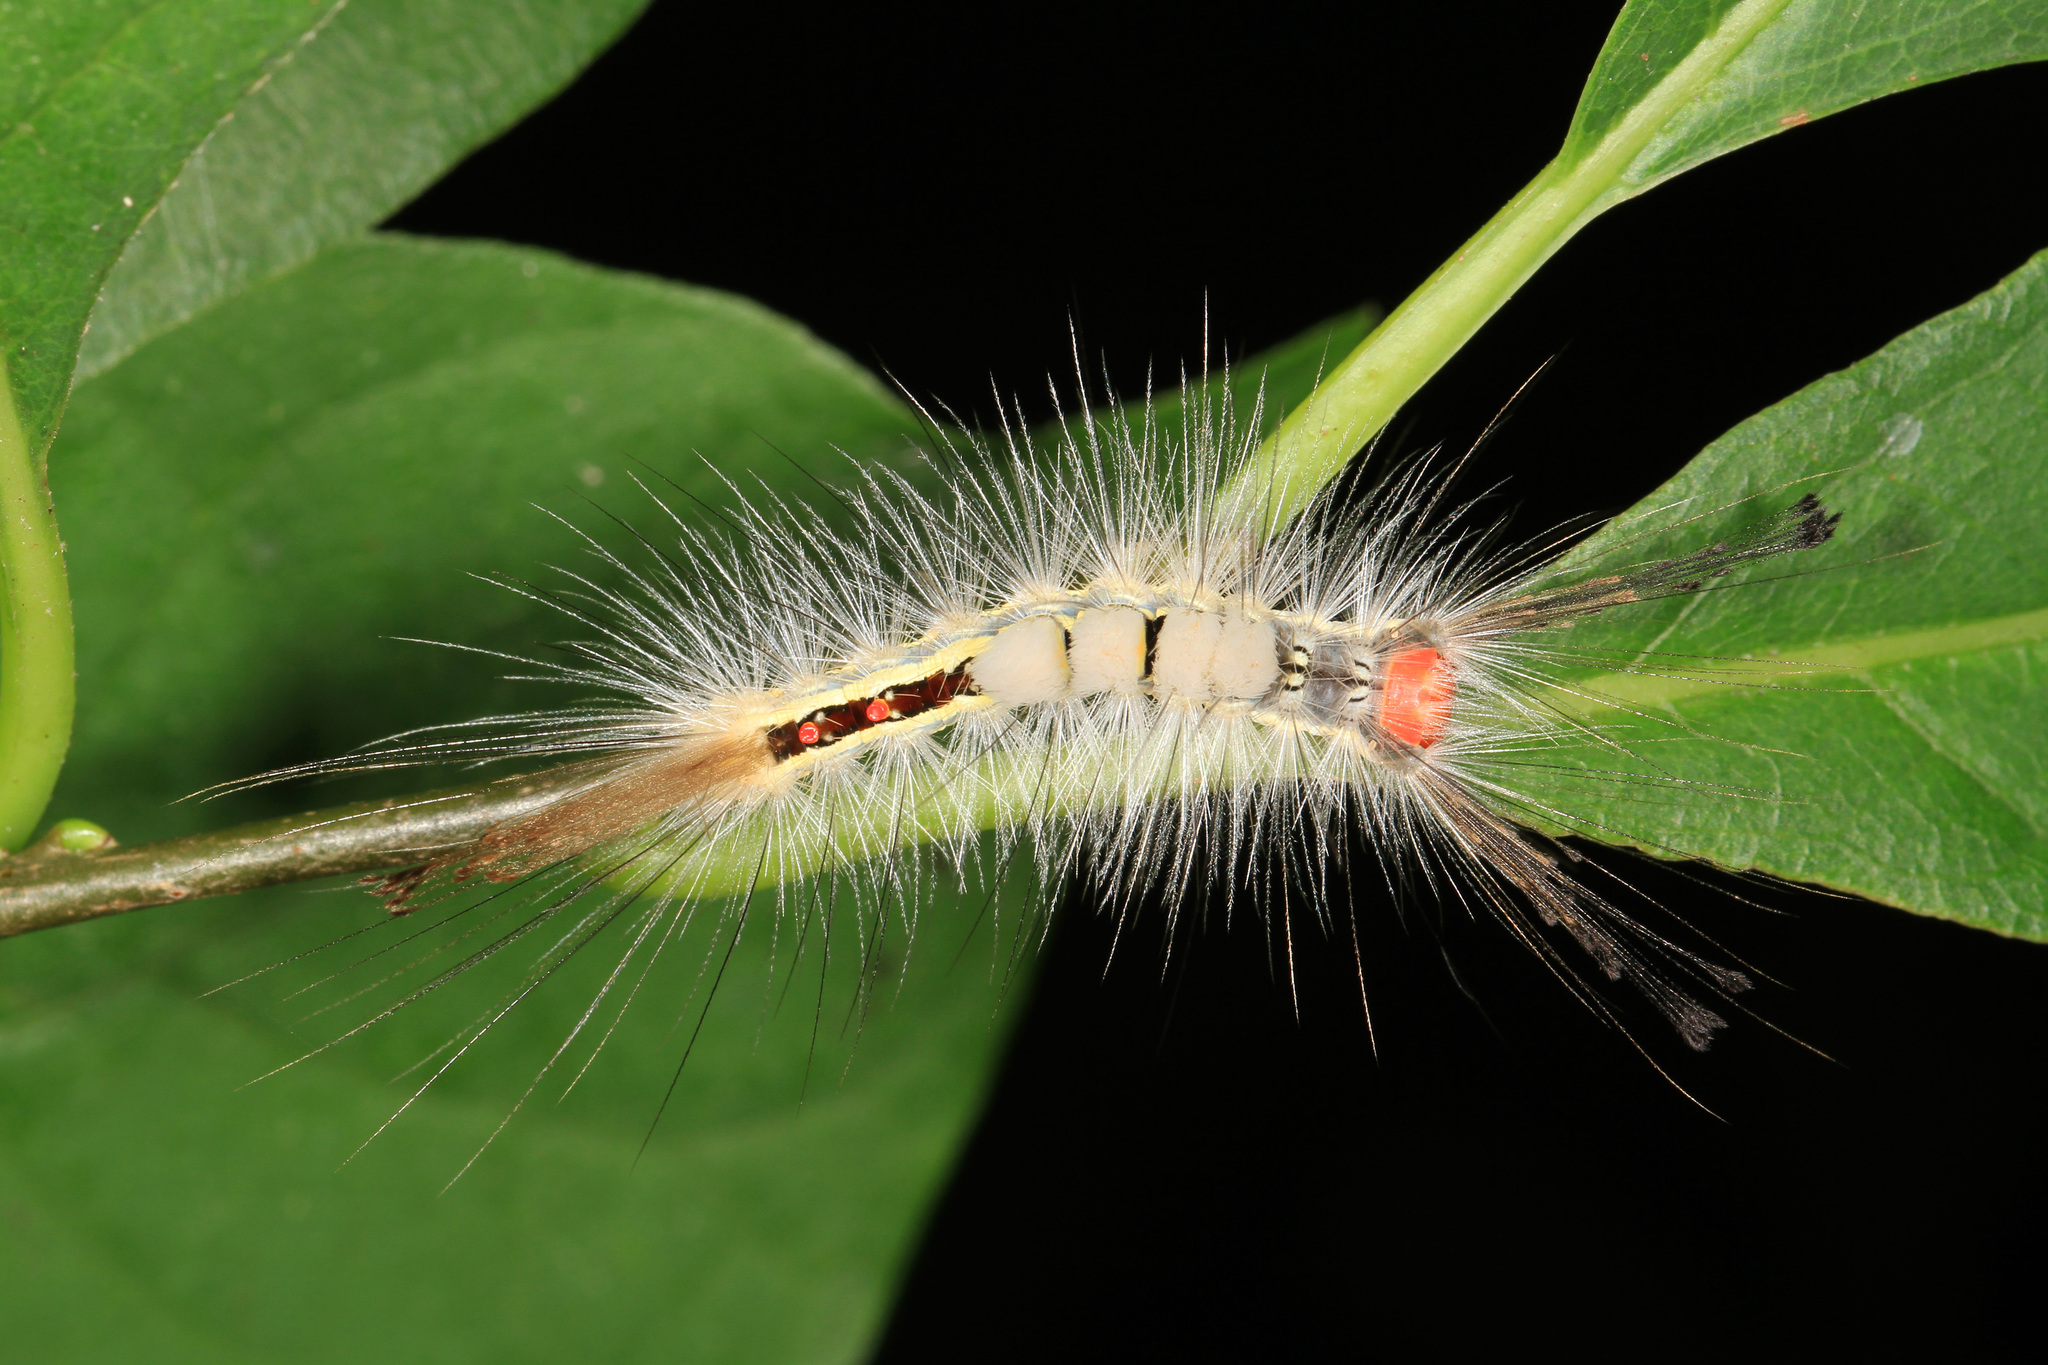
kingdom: Animalia
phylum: Arthropoda
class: Insecta
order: Lepidoptera
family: Erebidae
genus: Orgyia
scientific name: Orgyia leucostigma
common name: White-marked tussock moth
